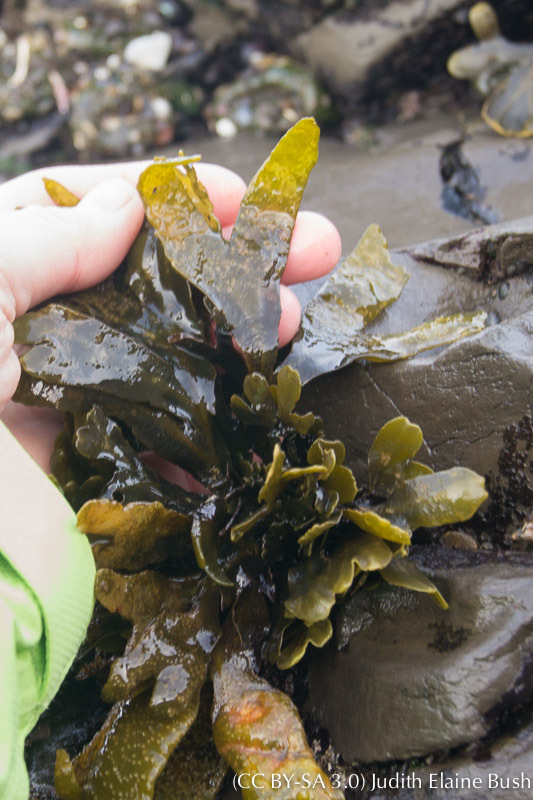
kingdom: Chromista
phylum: Ochrophyta
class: Phaeophyceae
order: Fucales
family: Fucaceae
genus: Fucus
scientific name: Fucus distichus
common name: Rockweed
